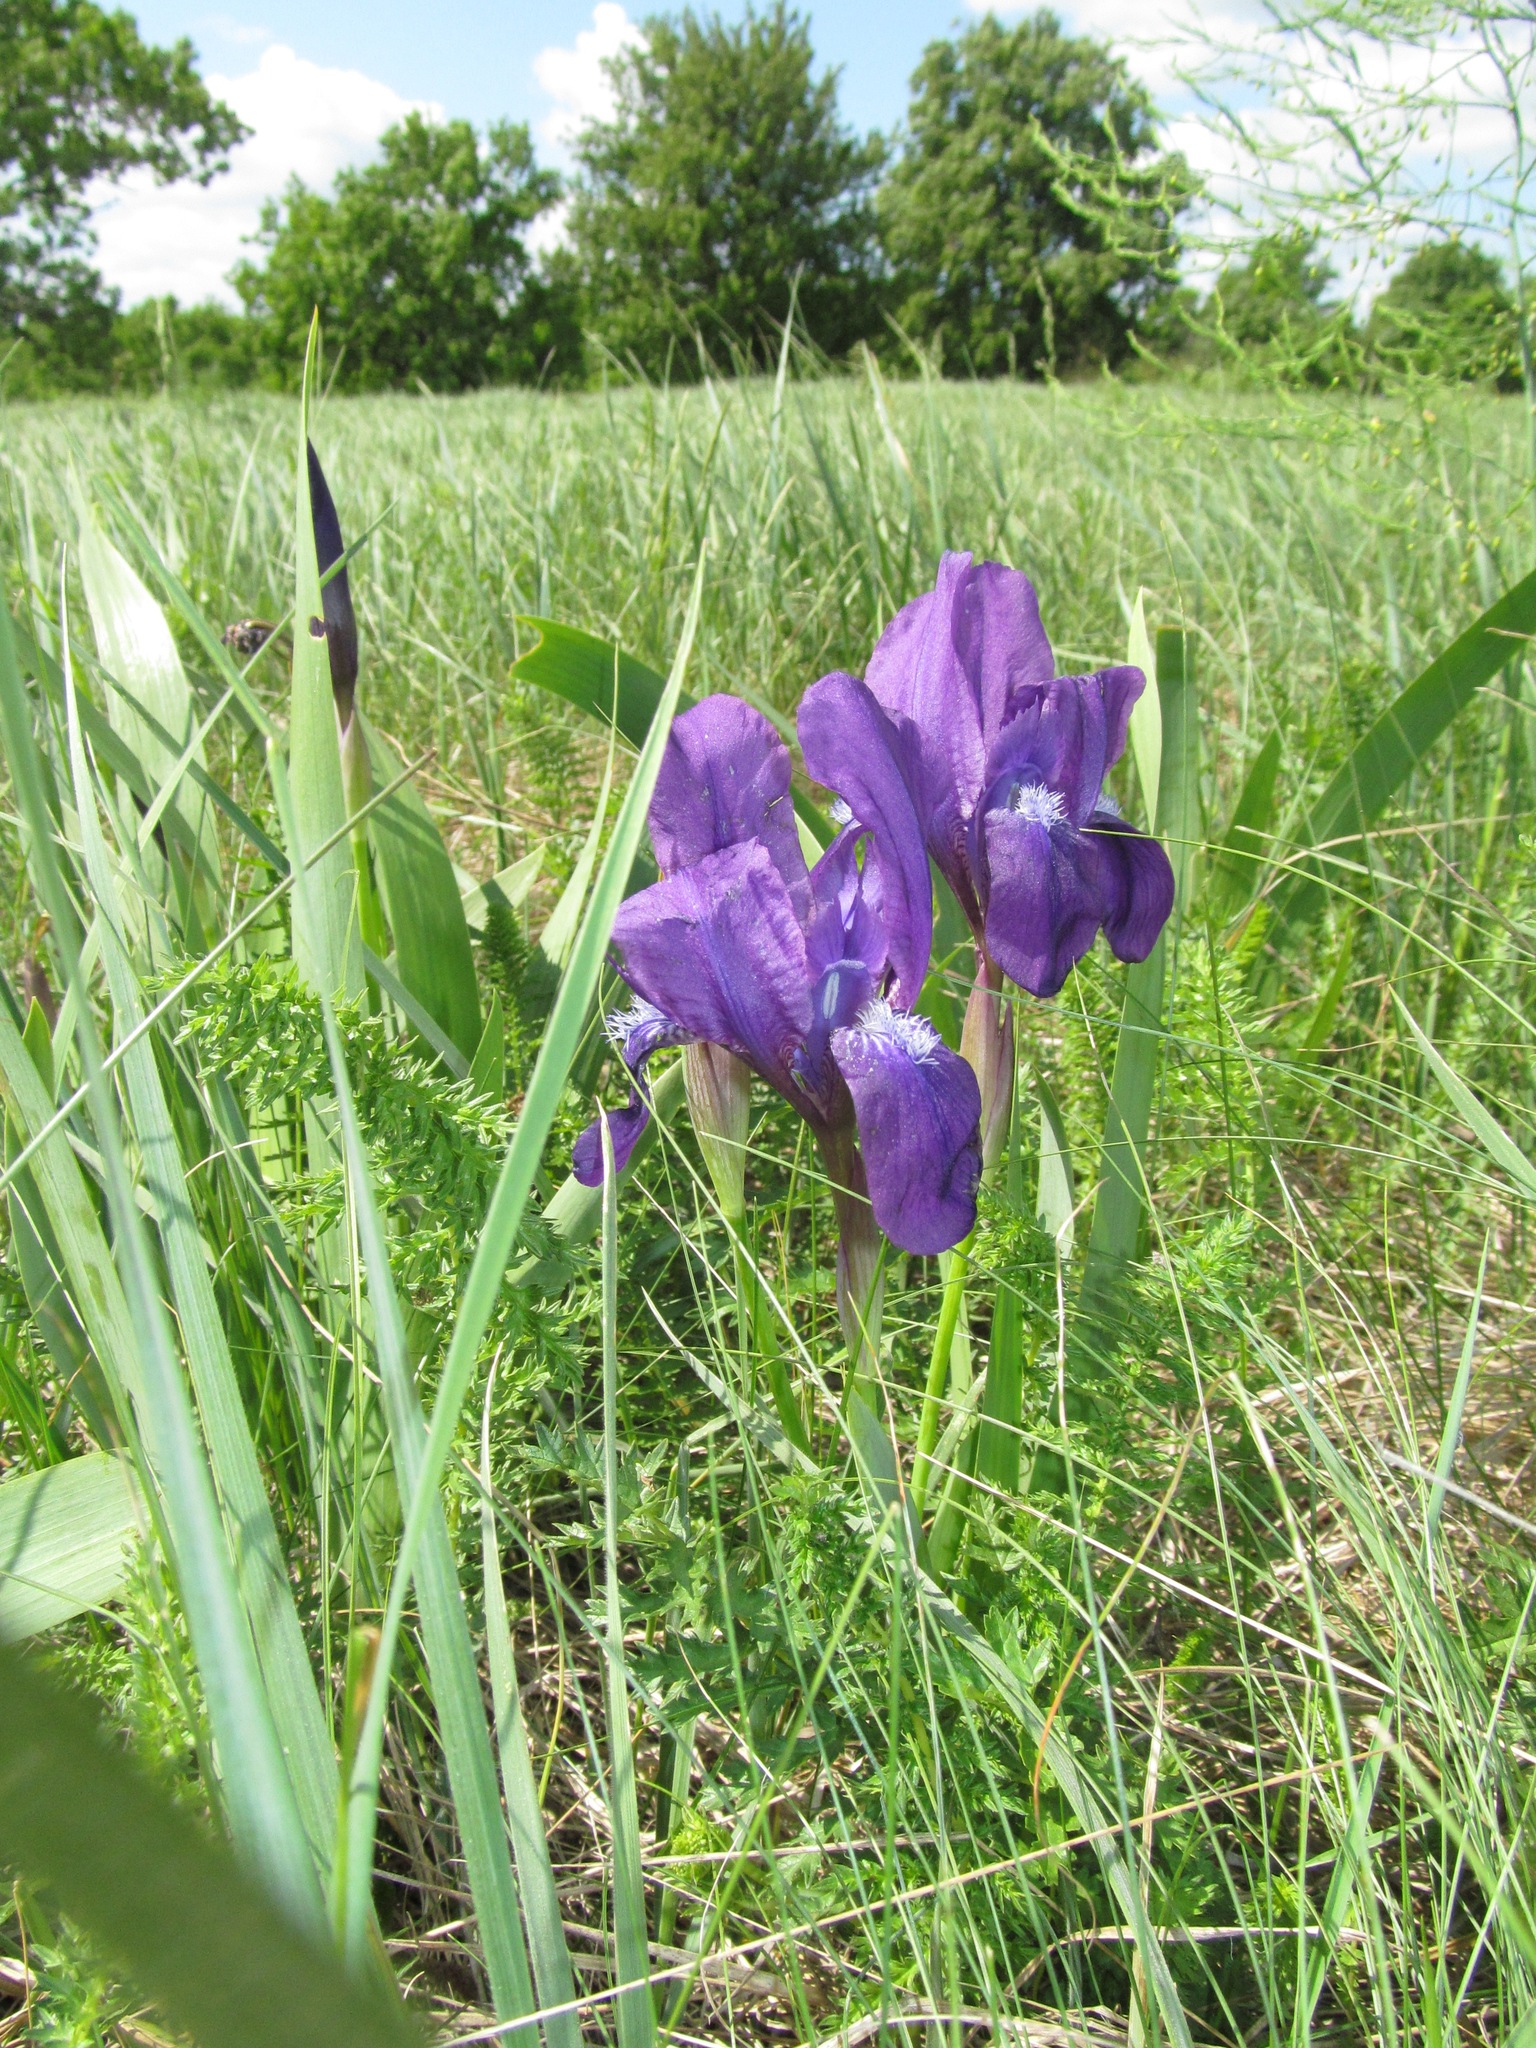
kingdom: Plantae
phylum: Tracheophyta
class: Liliopsida
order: Asparagales
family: Iridaceae
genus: Iris
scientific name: Iris aphylla
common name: Stool iris
